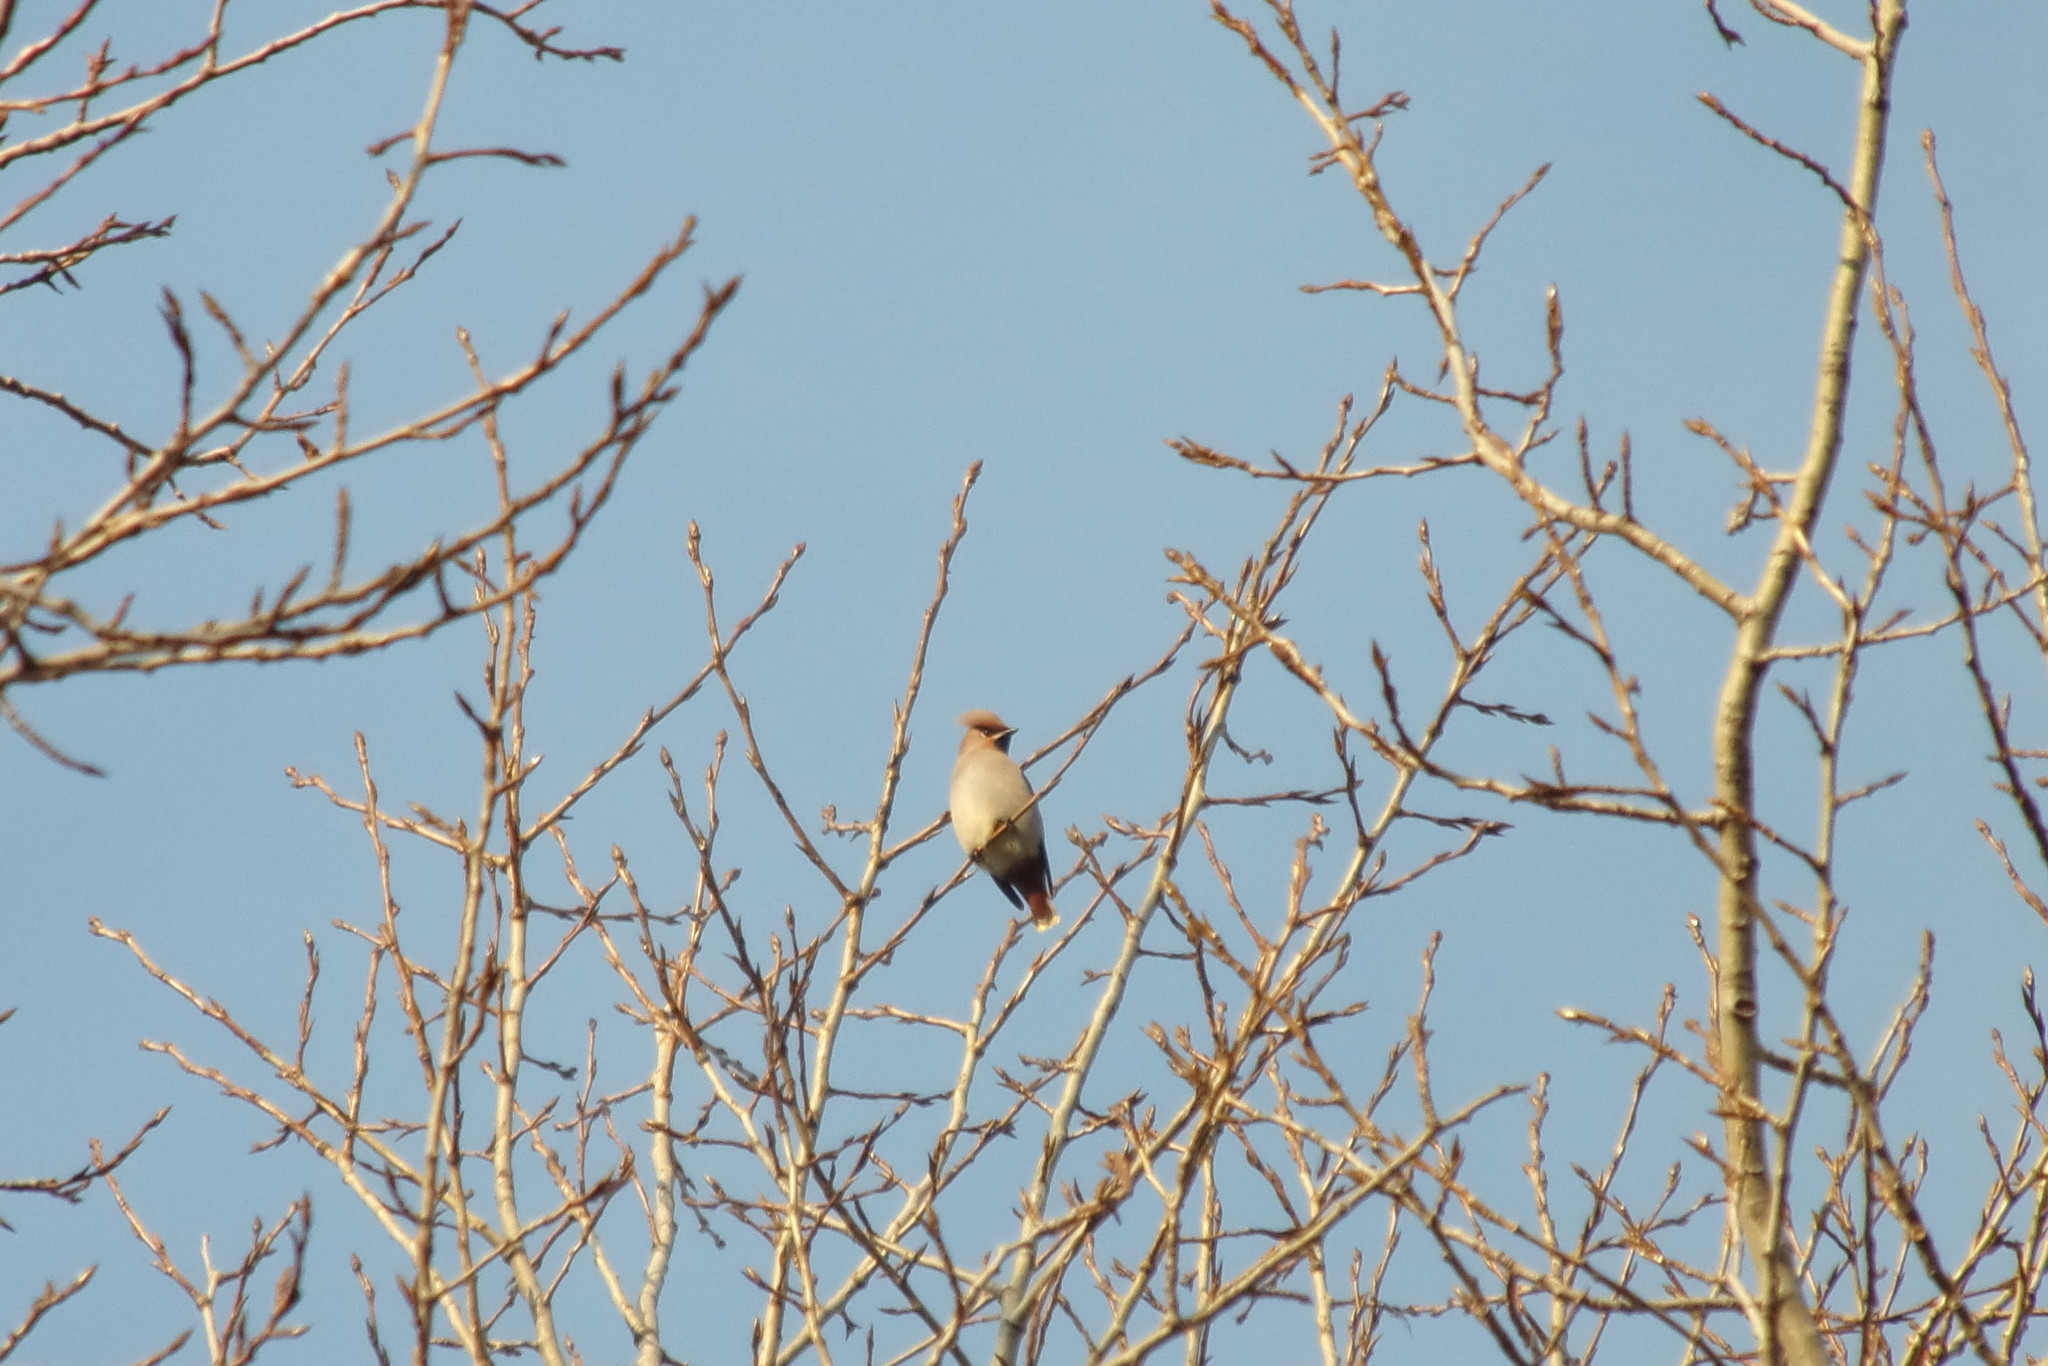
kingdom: Animalia
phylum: Chordata
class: Aves
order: Passeriformes
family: Bombycillidae
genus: Bombycilla
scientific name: Bombycilla garrulus
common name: Bohemian waxwing
